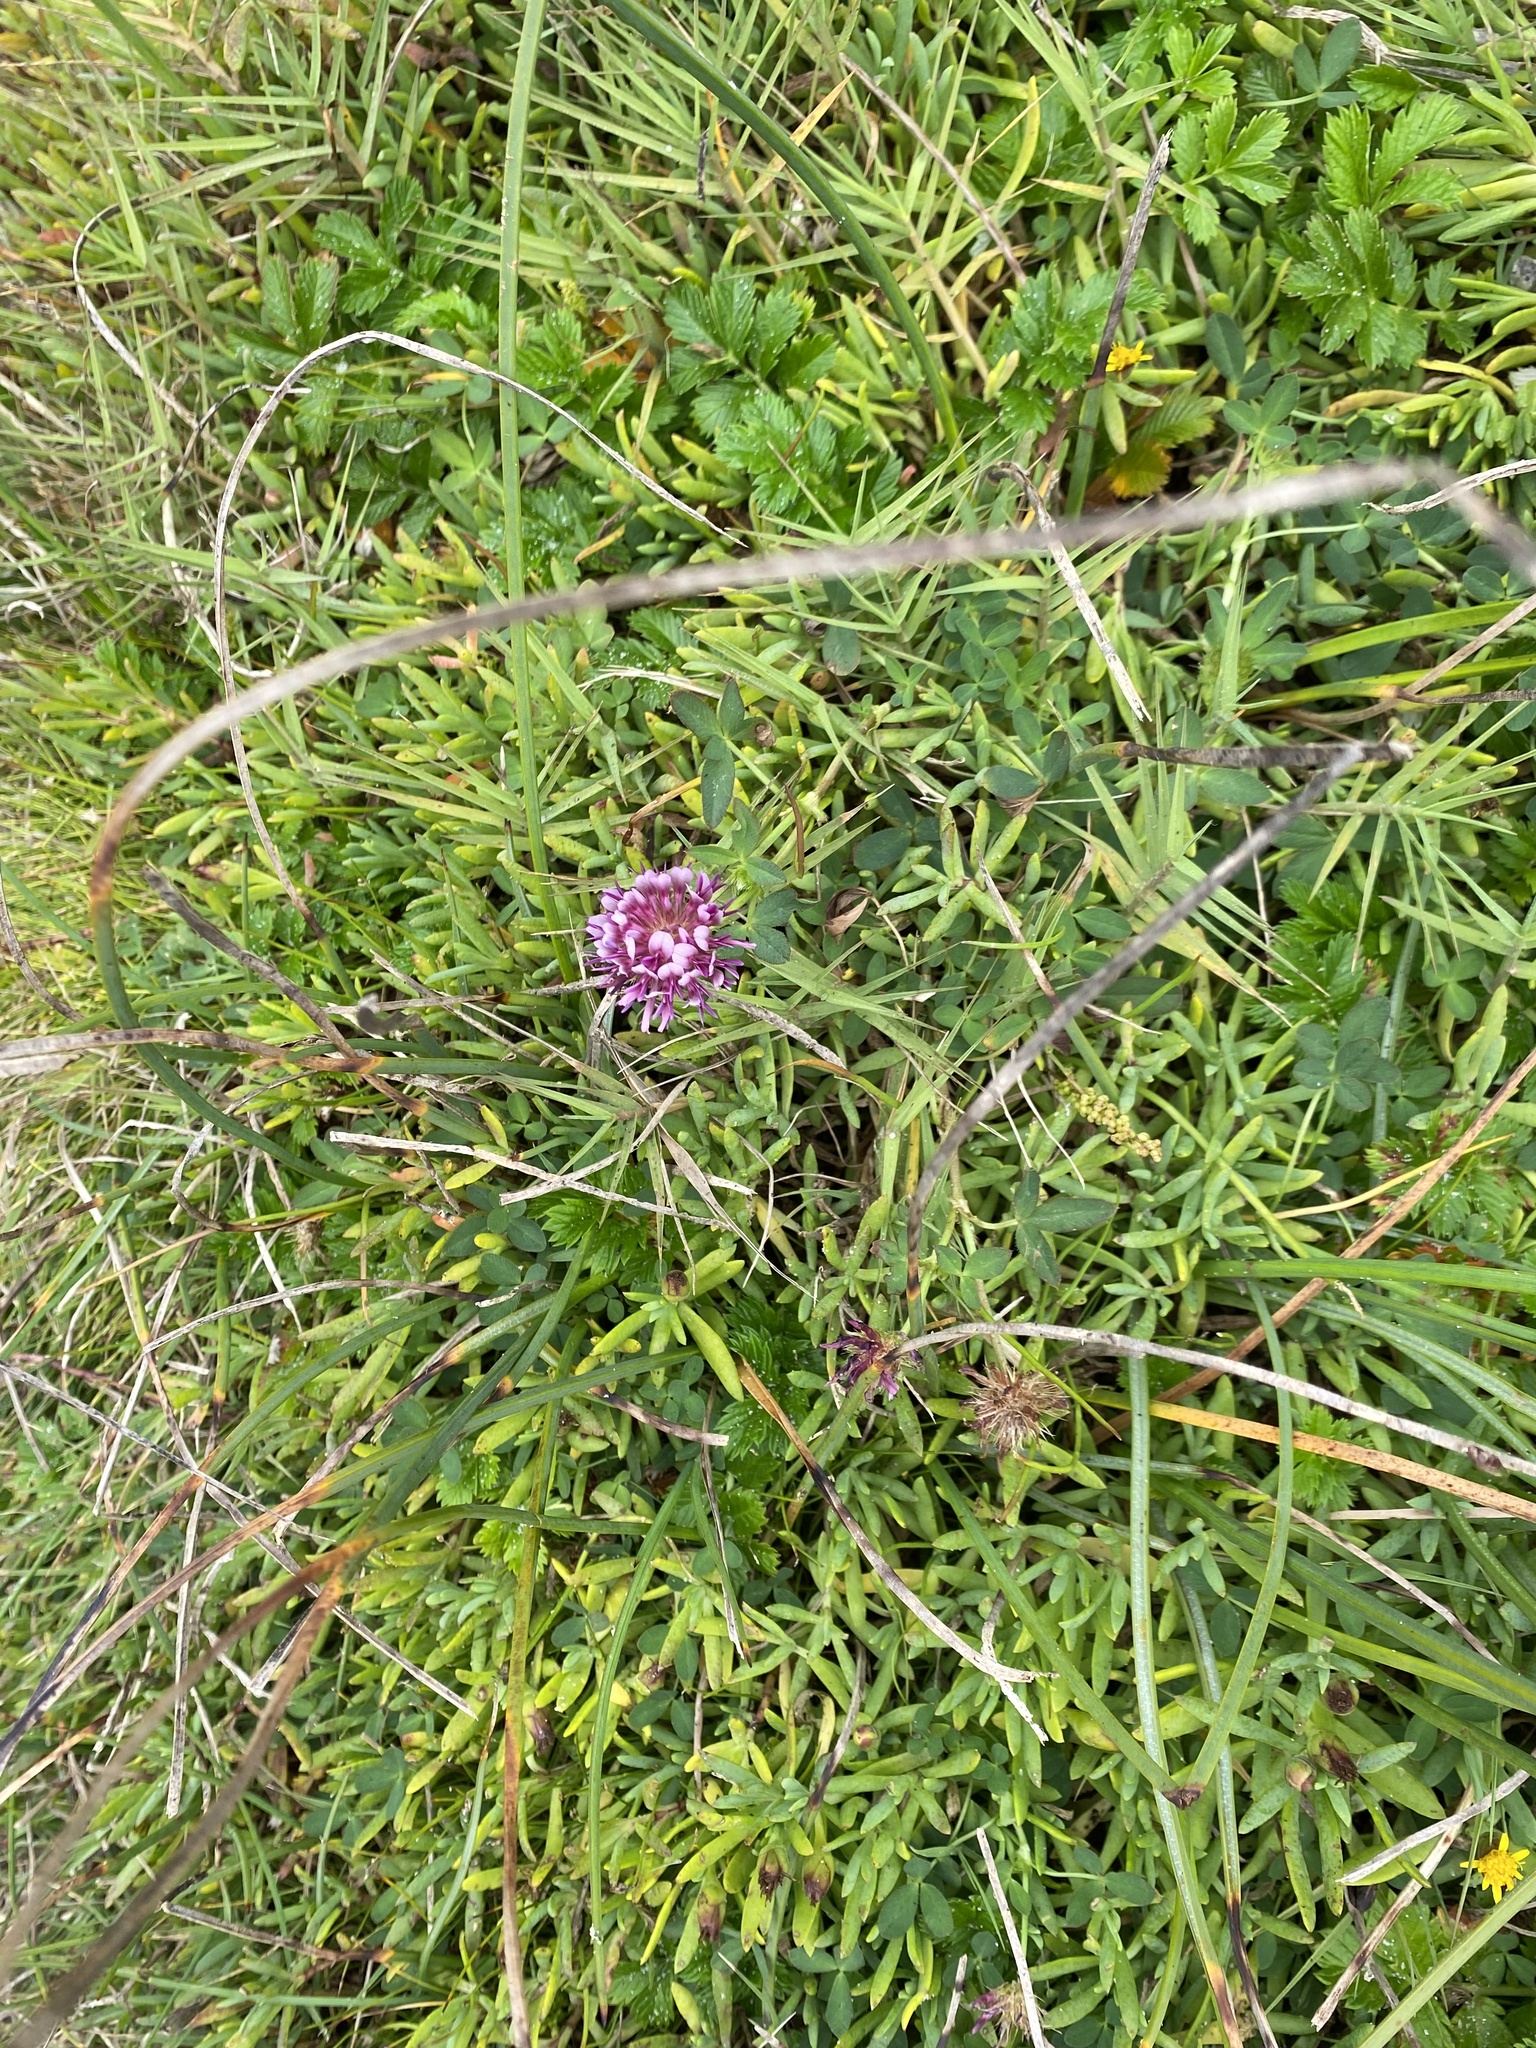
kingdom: Plantae
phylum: Tracheophyta
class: Magnoliopsida
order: Fabales
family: Fabaceae
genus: Trifolium
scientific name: Trifolium wormskioldii
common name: Springbank clover
